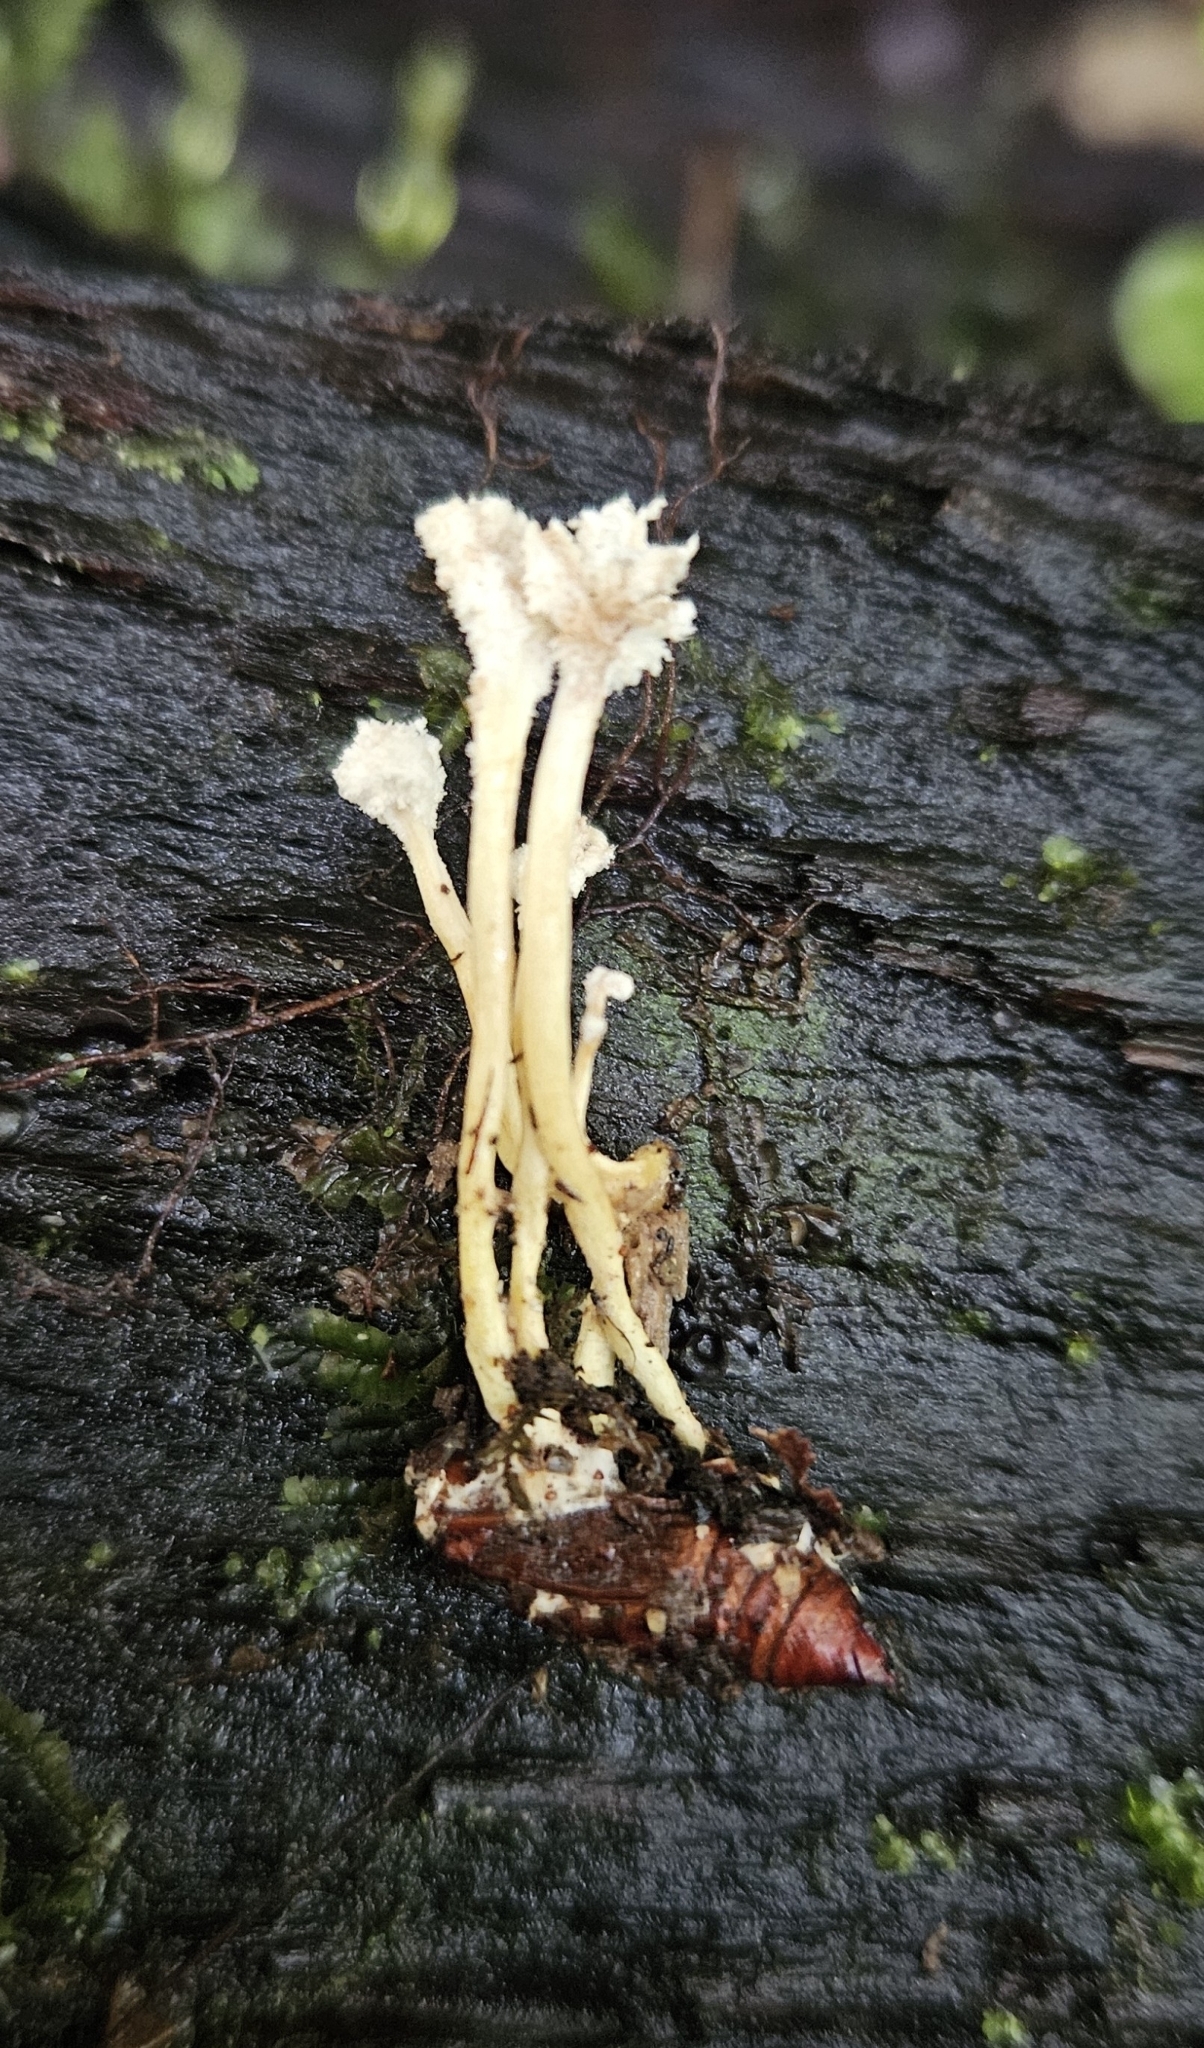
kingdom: Fungi
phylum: Ascomycota
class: Sordariomycetes
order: Hypocreales
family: Cordycipitaceae
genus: Cordyceps
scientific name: Cordyceps tenuipes
